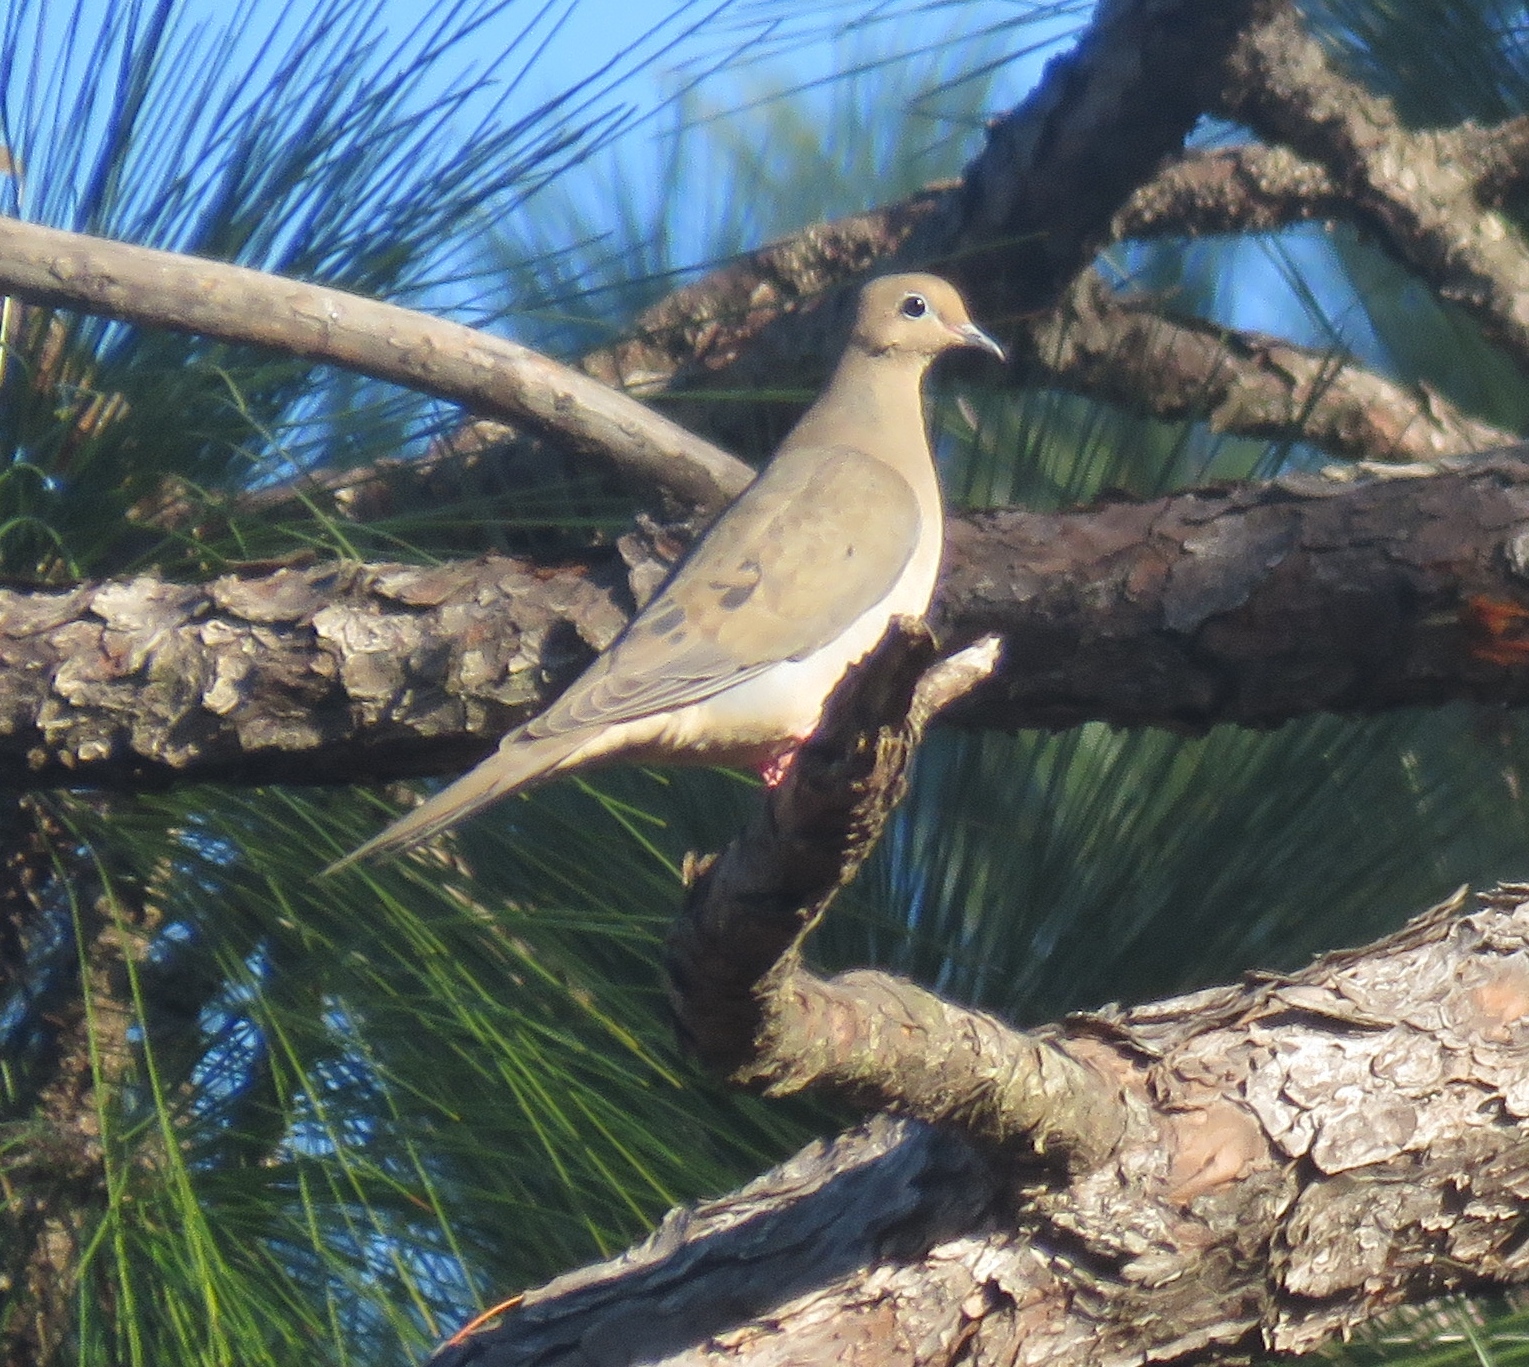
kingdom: Animalia
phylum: Chordata
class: Aves
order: Columbiformes
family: Columbidae
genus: Zenaida
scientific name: Zenaida macroura
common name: Mourning dove
